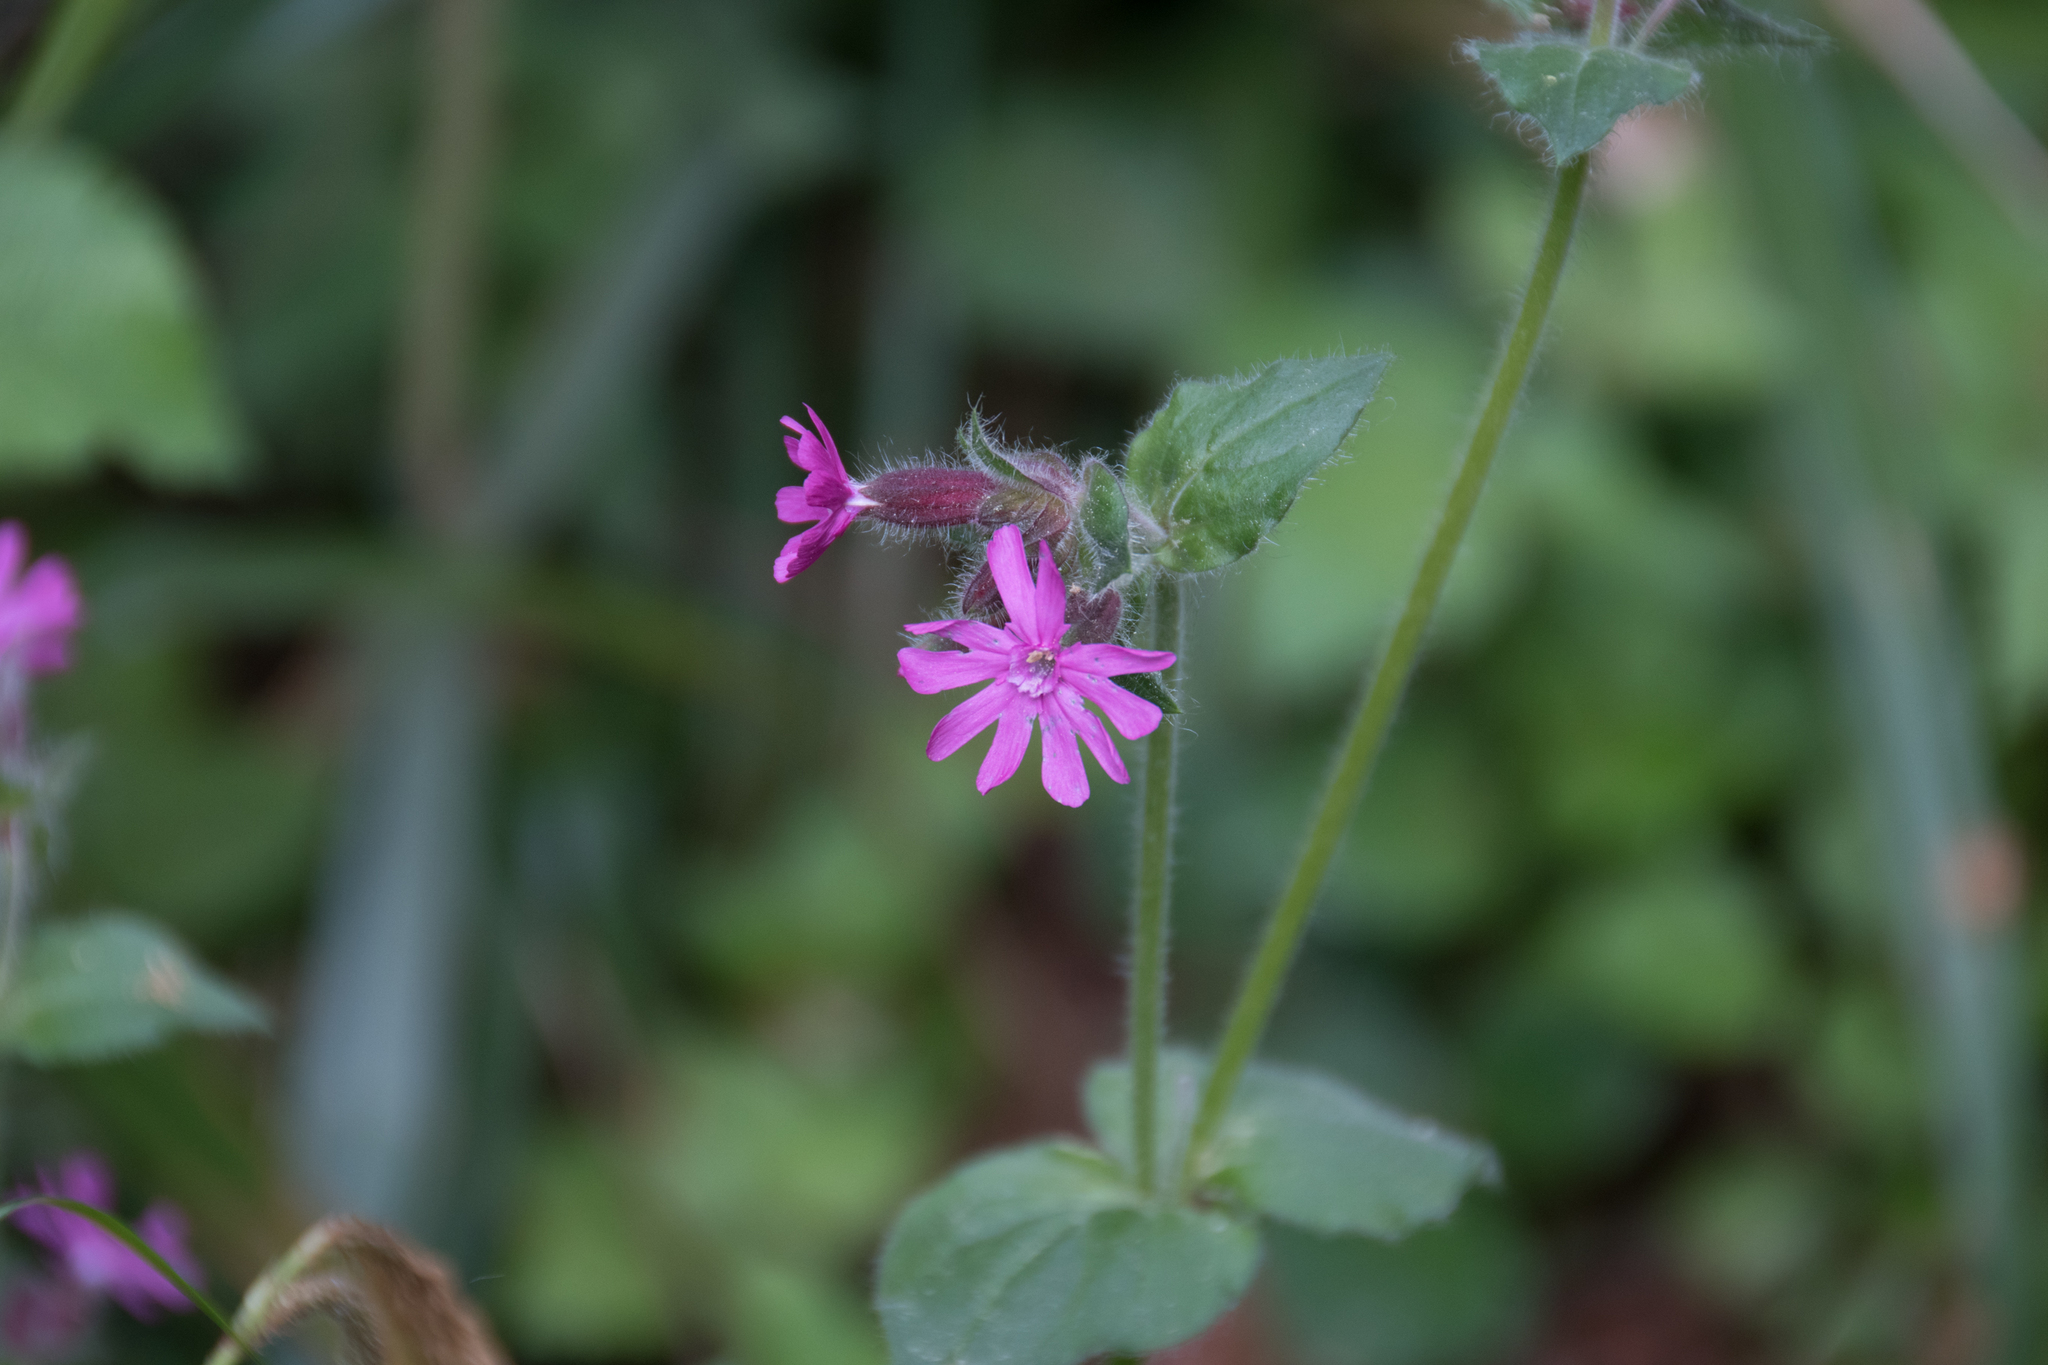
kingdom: Plantae
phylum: Tracheophyta
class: Magnoliopsida
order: Caryophyllales
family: Caryophyllaceae
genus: Silene
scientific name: Silene dioica
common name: Red campion
